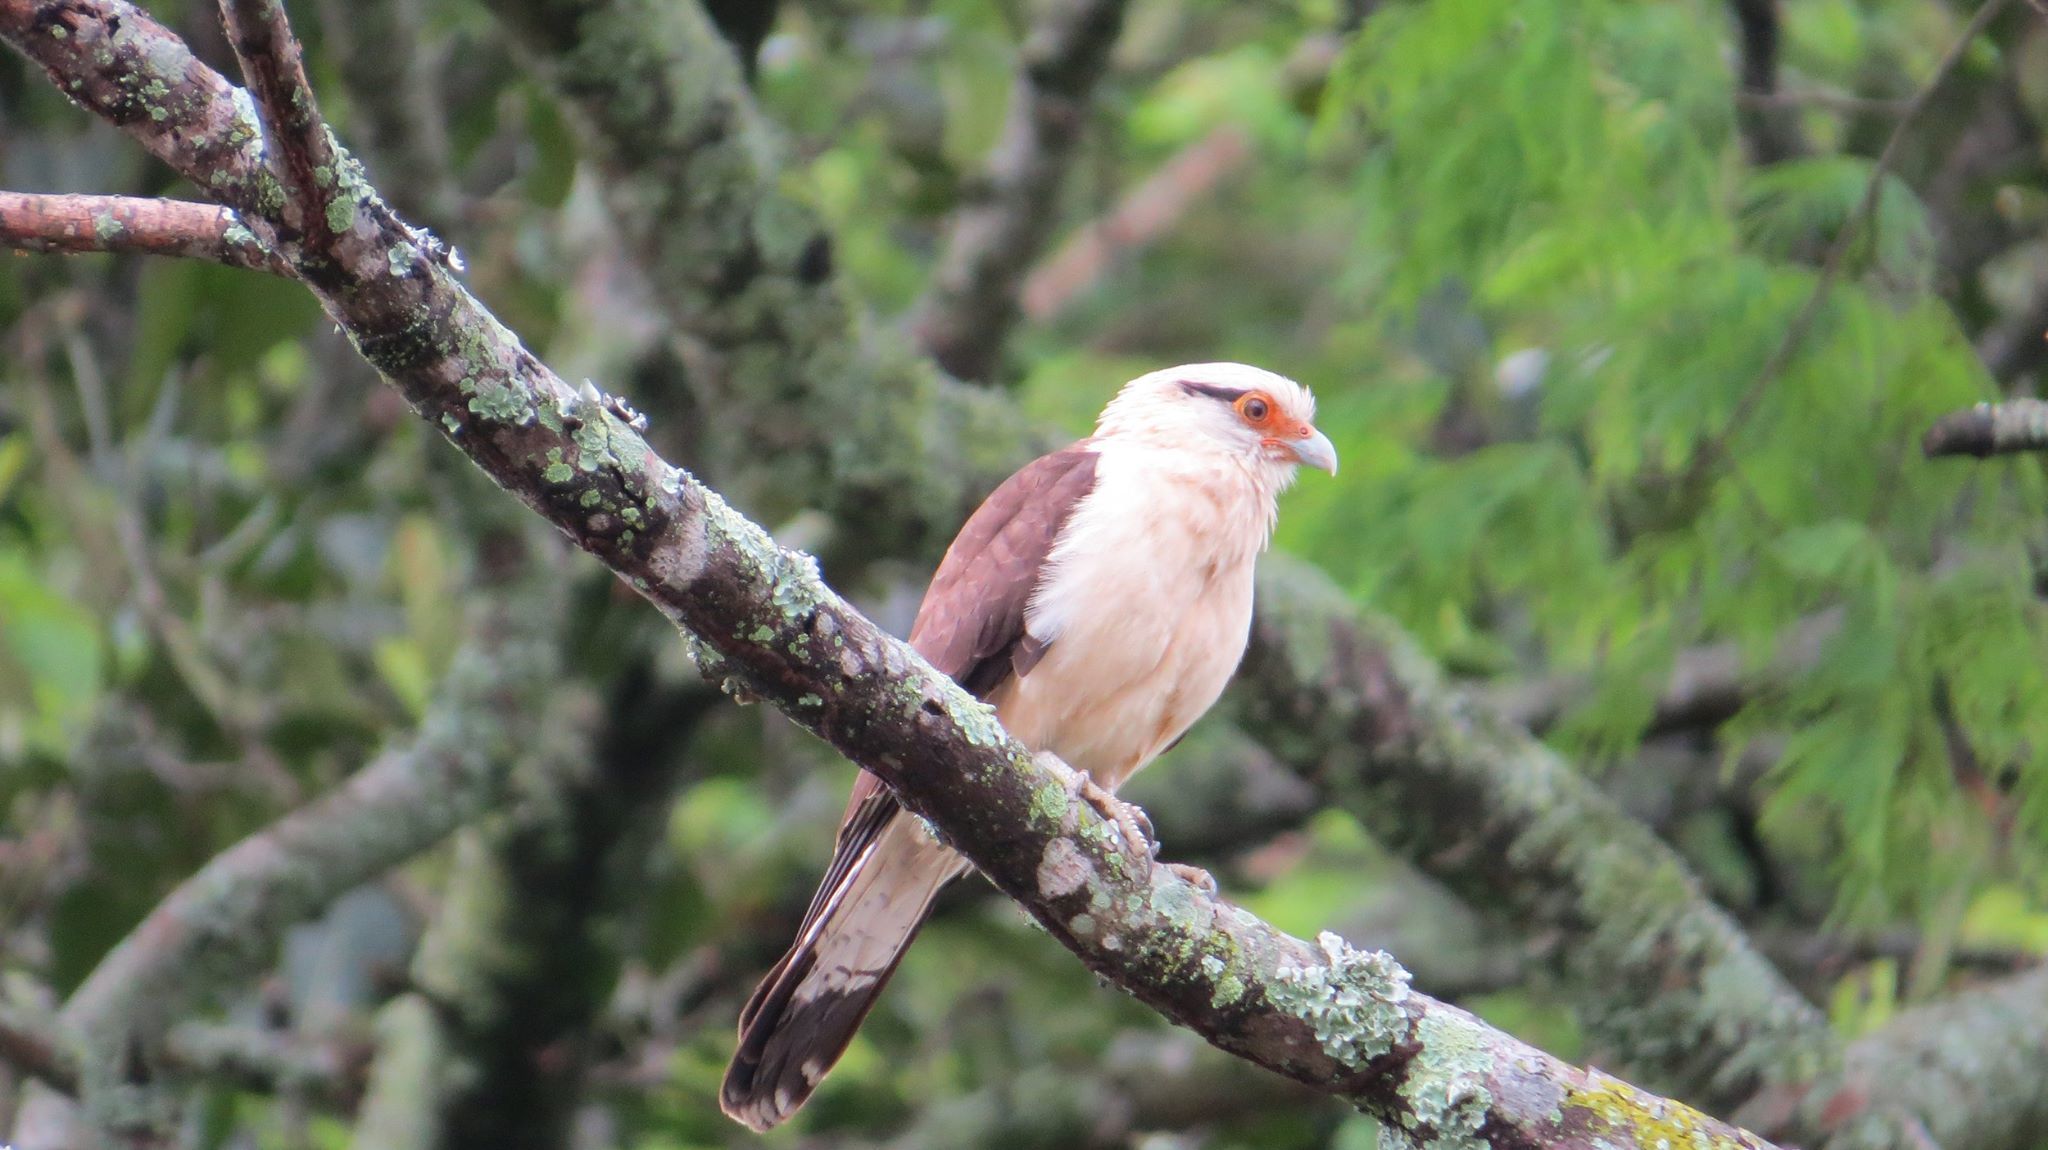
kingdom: Animalia
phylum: Chordata
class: Aves
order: Falconiformes
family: Falconidae
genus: Daptrius
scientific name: Daptrius
